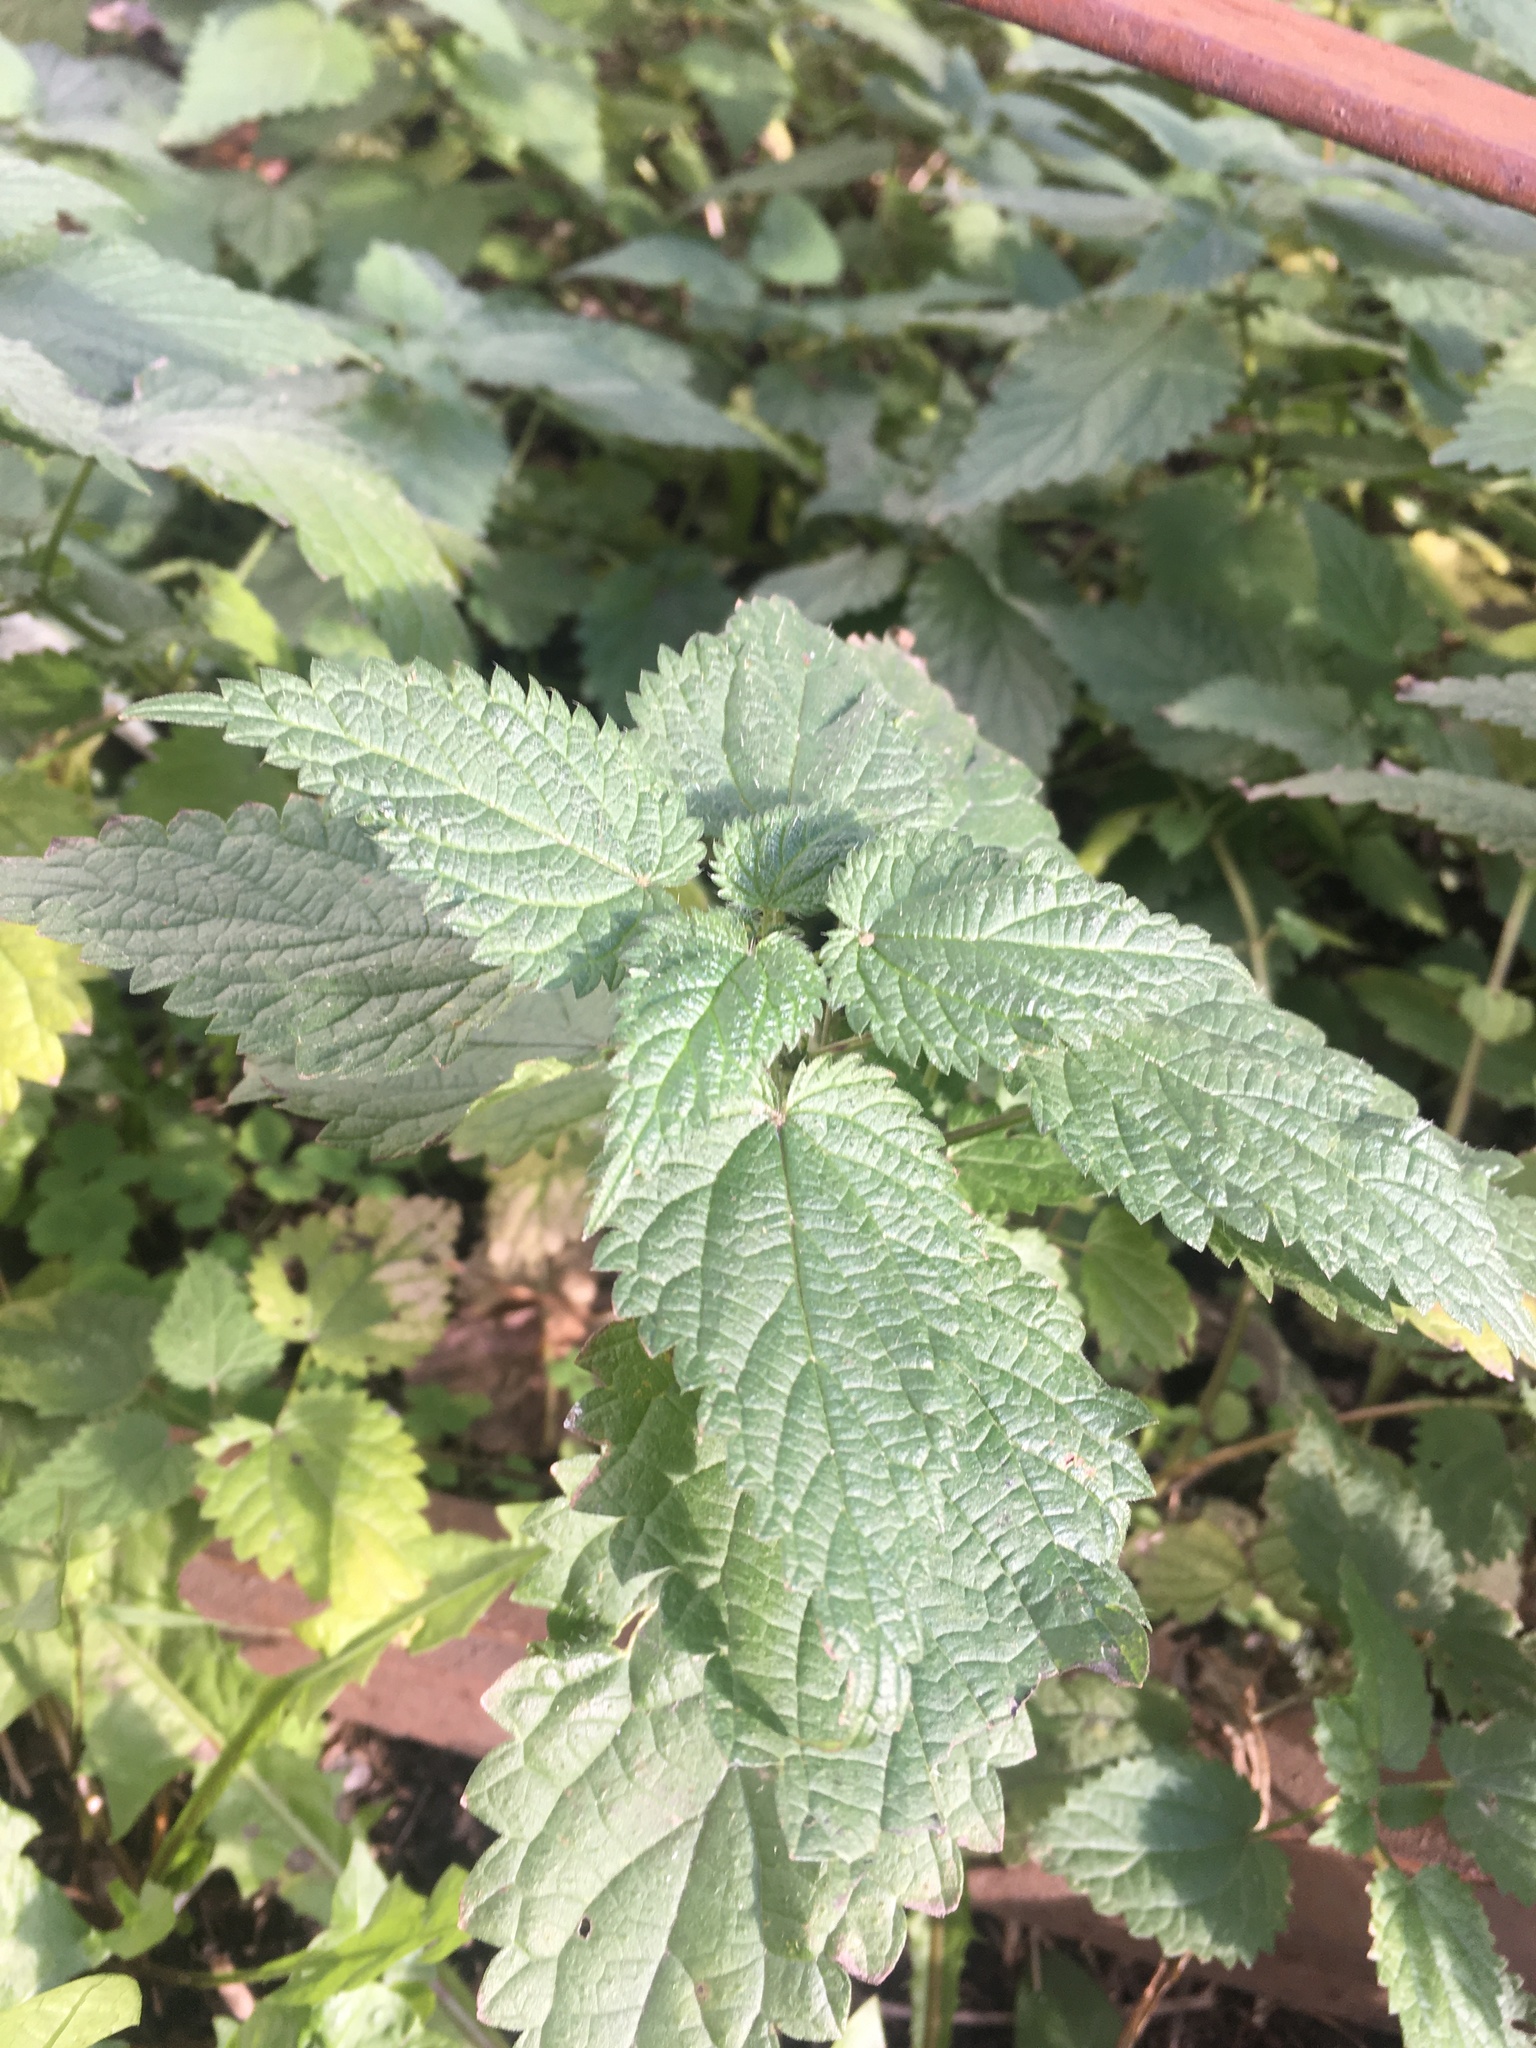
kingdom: Plantae
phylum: Tracheophyta
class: Magnoliopsida
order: Rosales
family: Urticaceae
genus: Urtica
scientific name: Urtica dioica
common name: Common nettle
